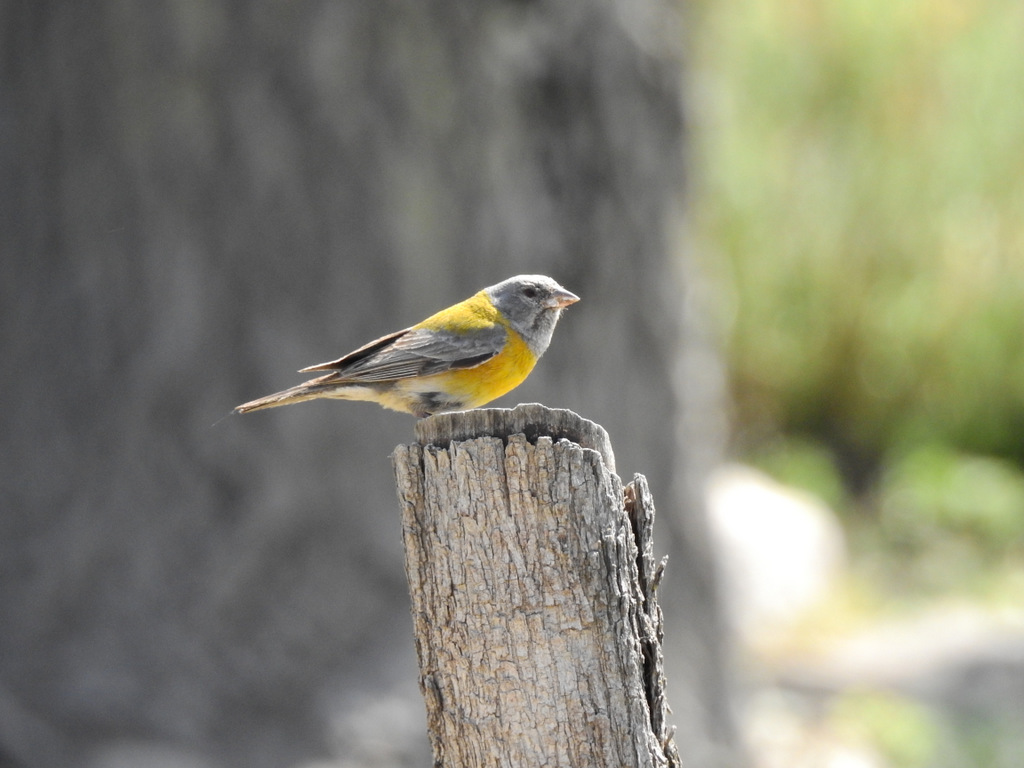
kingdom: Animalia
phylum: Chordata
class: Aves
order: Passeriformes
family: Thraupidae
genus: Phrygilus
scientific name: Phrygilus gayi
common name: Grey-hooded sierra finch
